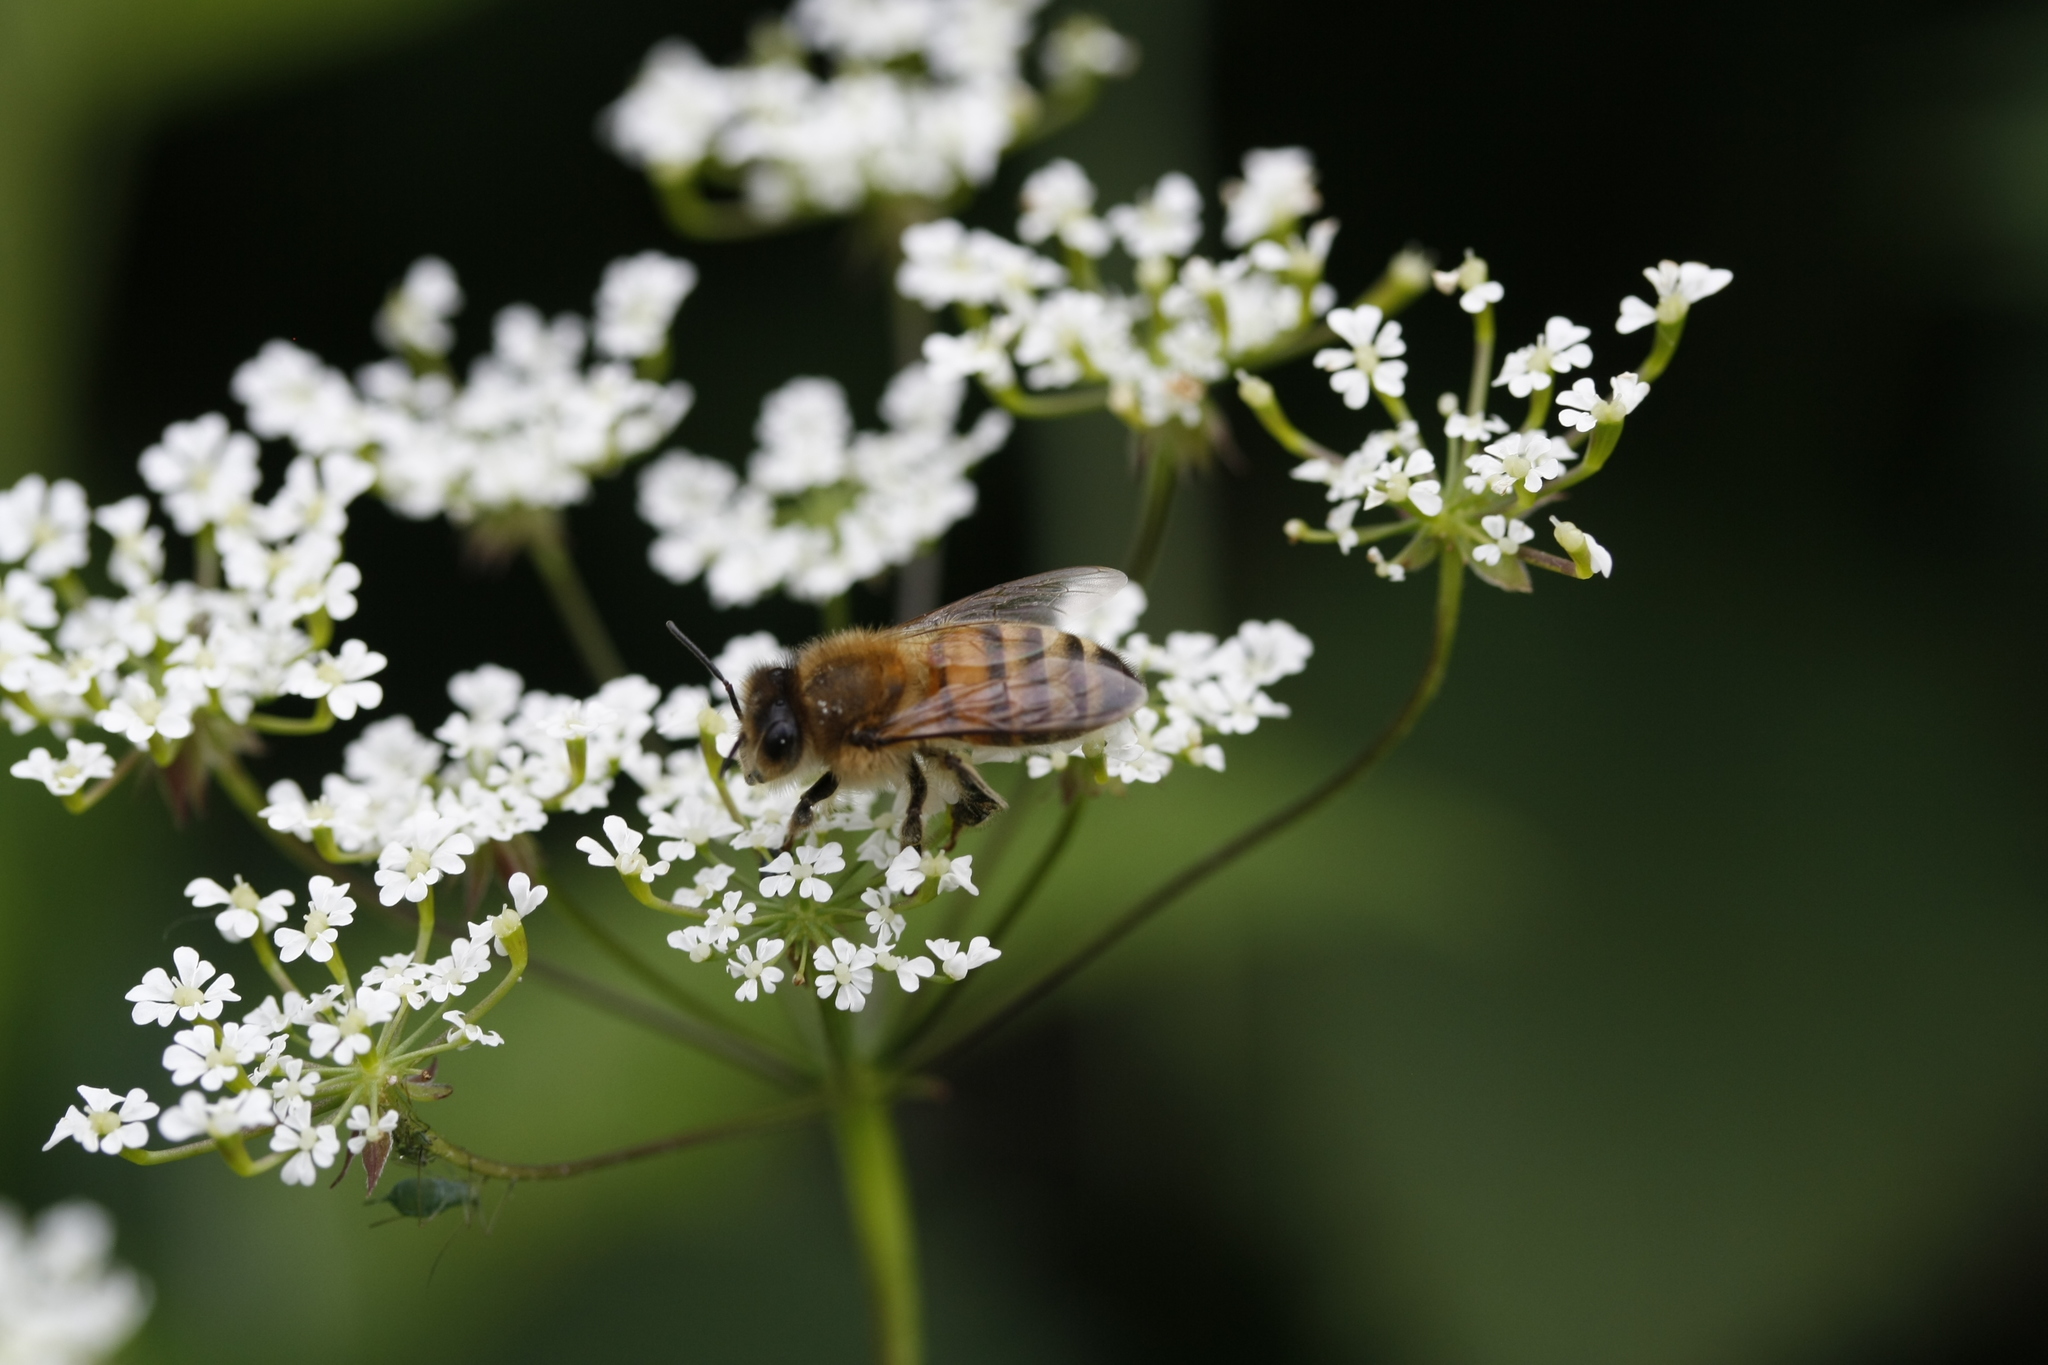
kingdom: Animalia
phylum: Arthropoda
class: Insecta
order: Hymenoptera
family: Apidae
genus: Apis
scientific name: Apis mellifera
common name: Honey bee
